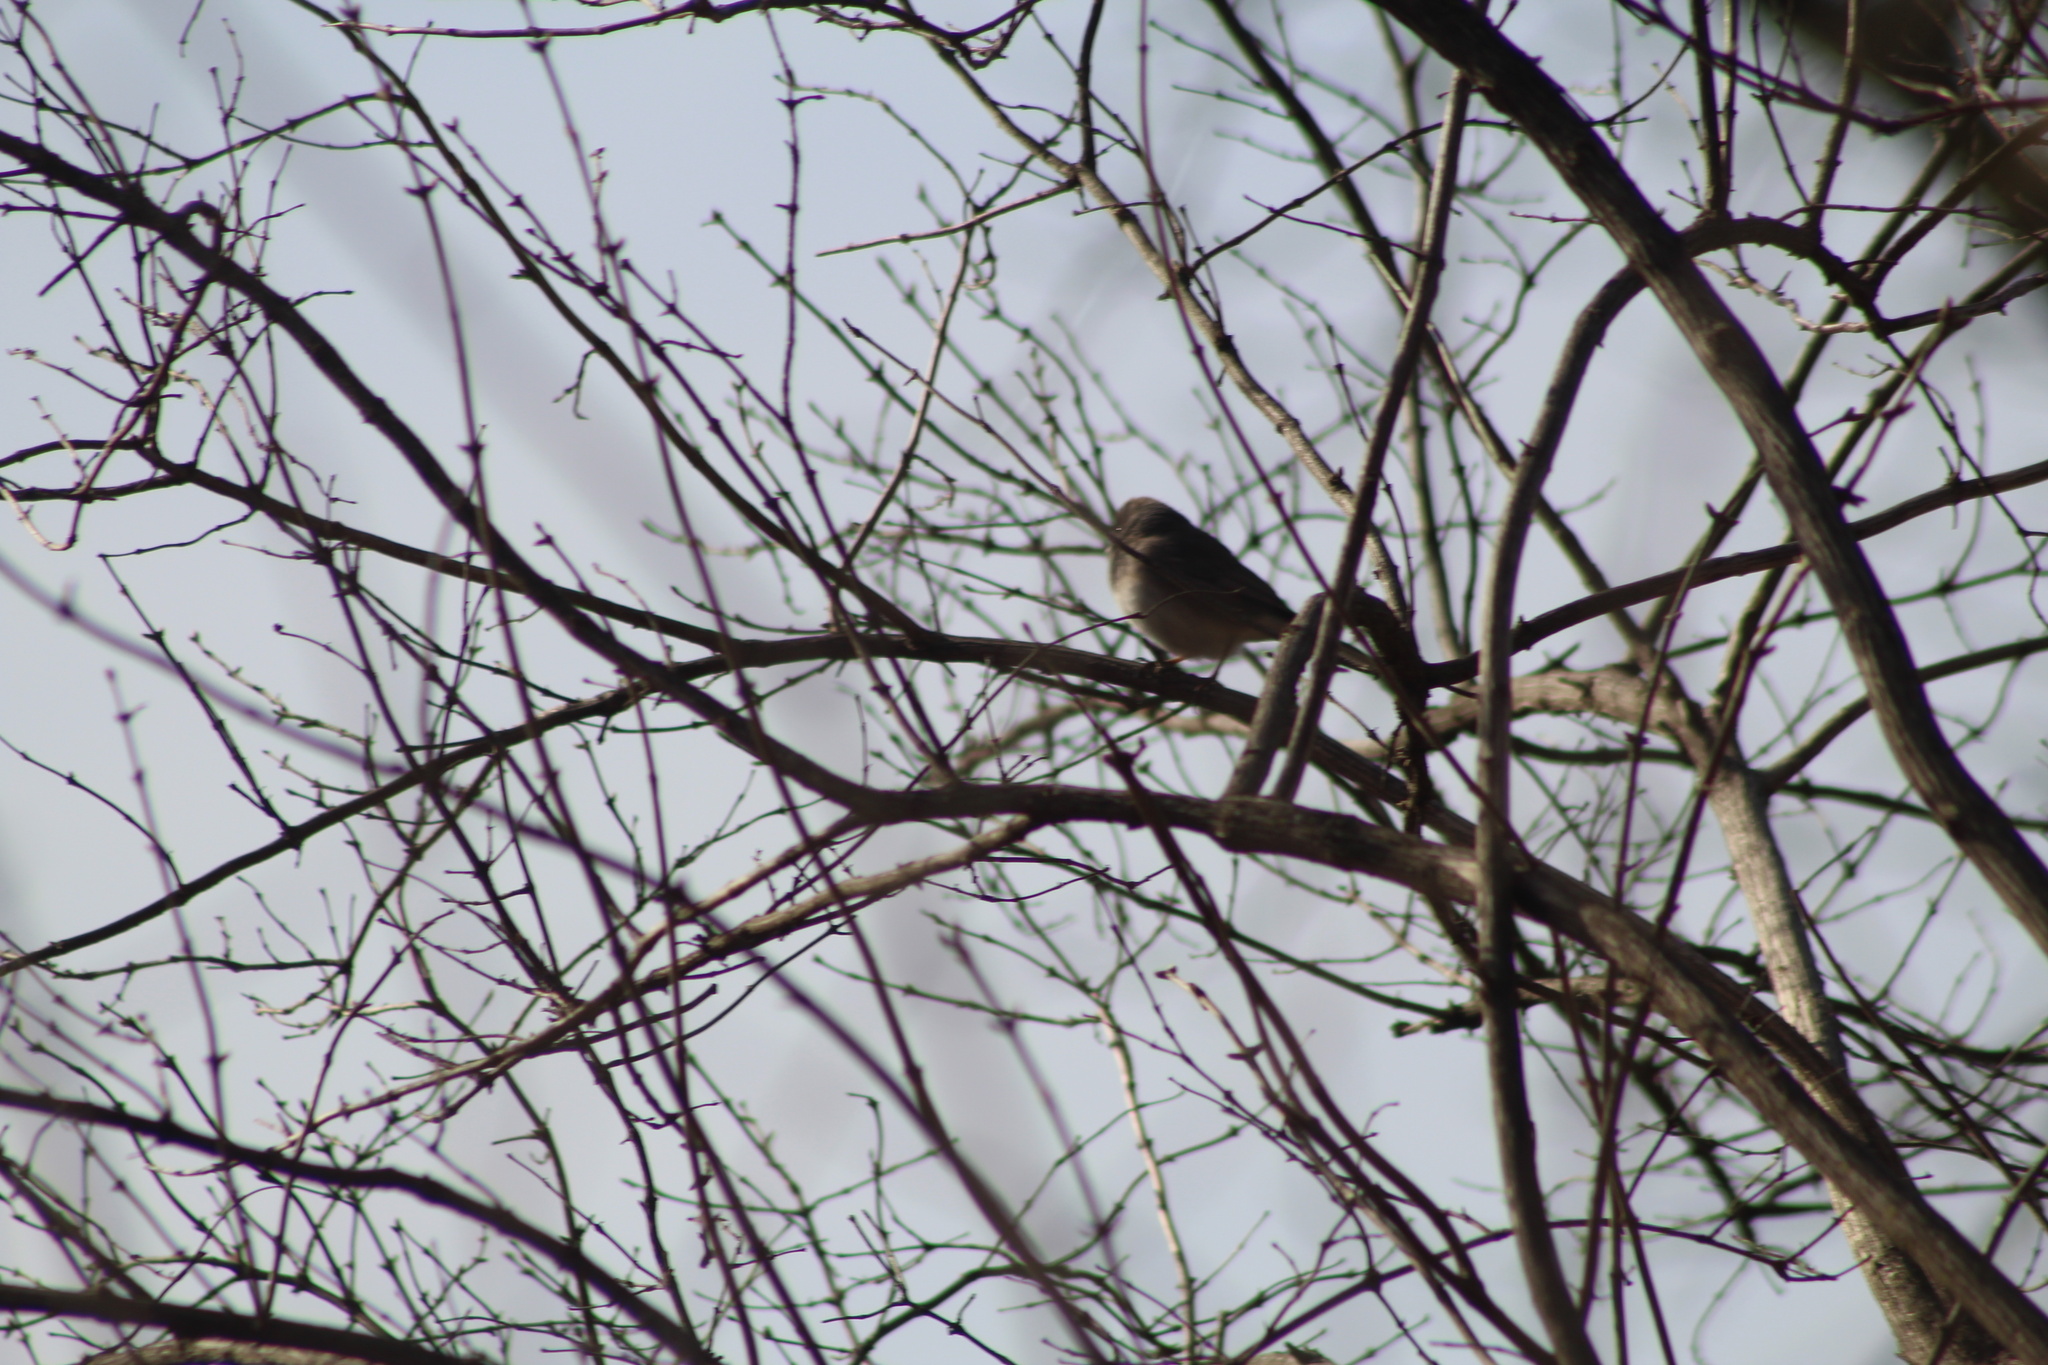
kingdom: Animalia
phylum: Chordata
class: Aves
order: Passeriformes
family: Passerellidae
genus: Junco
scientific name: Junco hyemalis
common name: Dark-eyed junco
